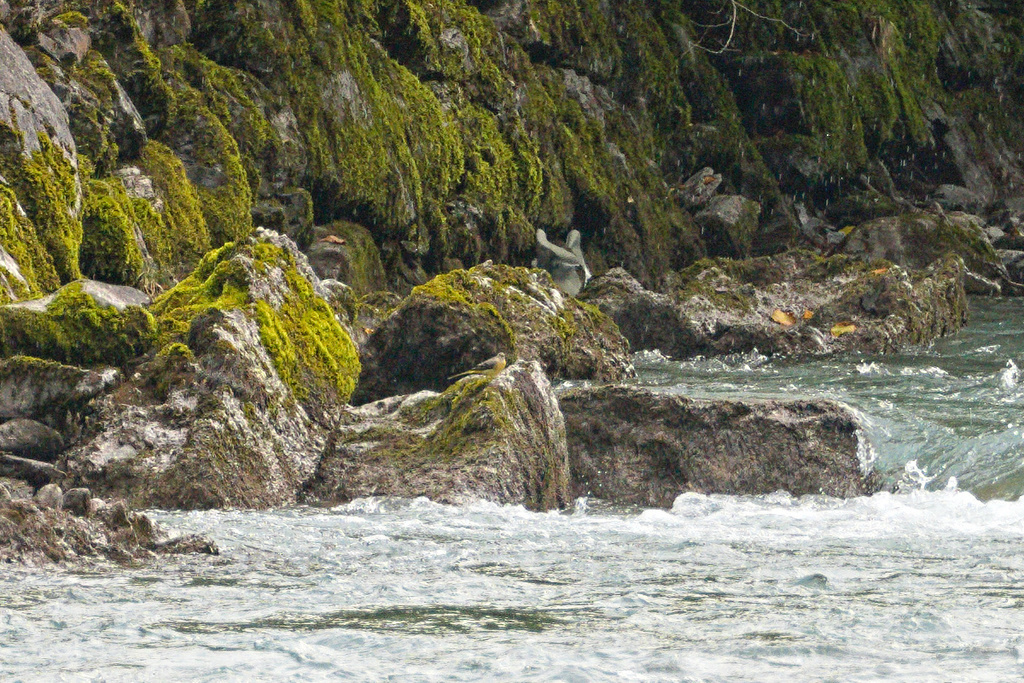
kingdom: Animalia
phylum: Chordata
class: Aves
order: Passeriformes
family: Motacillidae
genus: Motacilla
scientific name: Motacilla cinerea
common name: Grey wagtail
